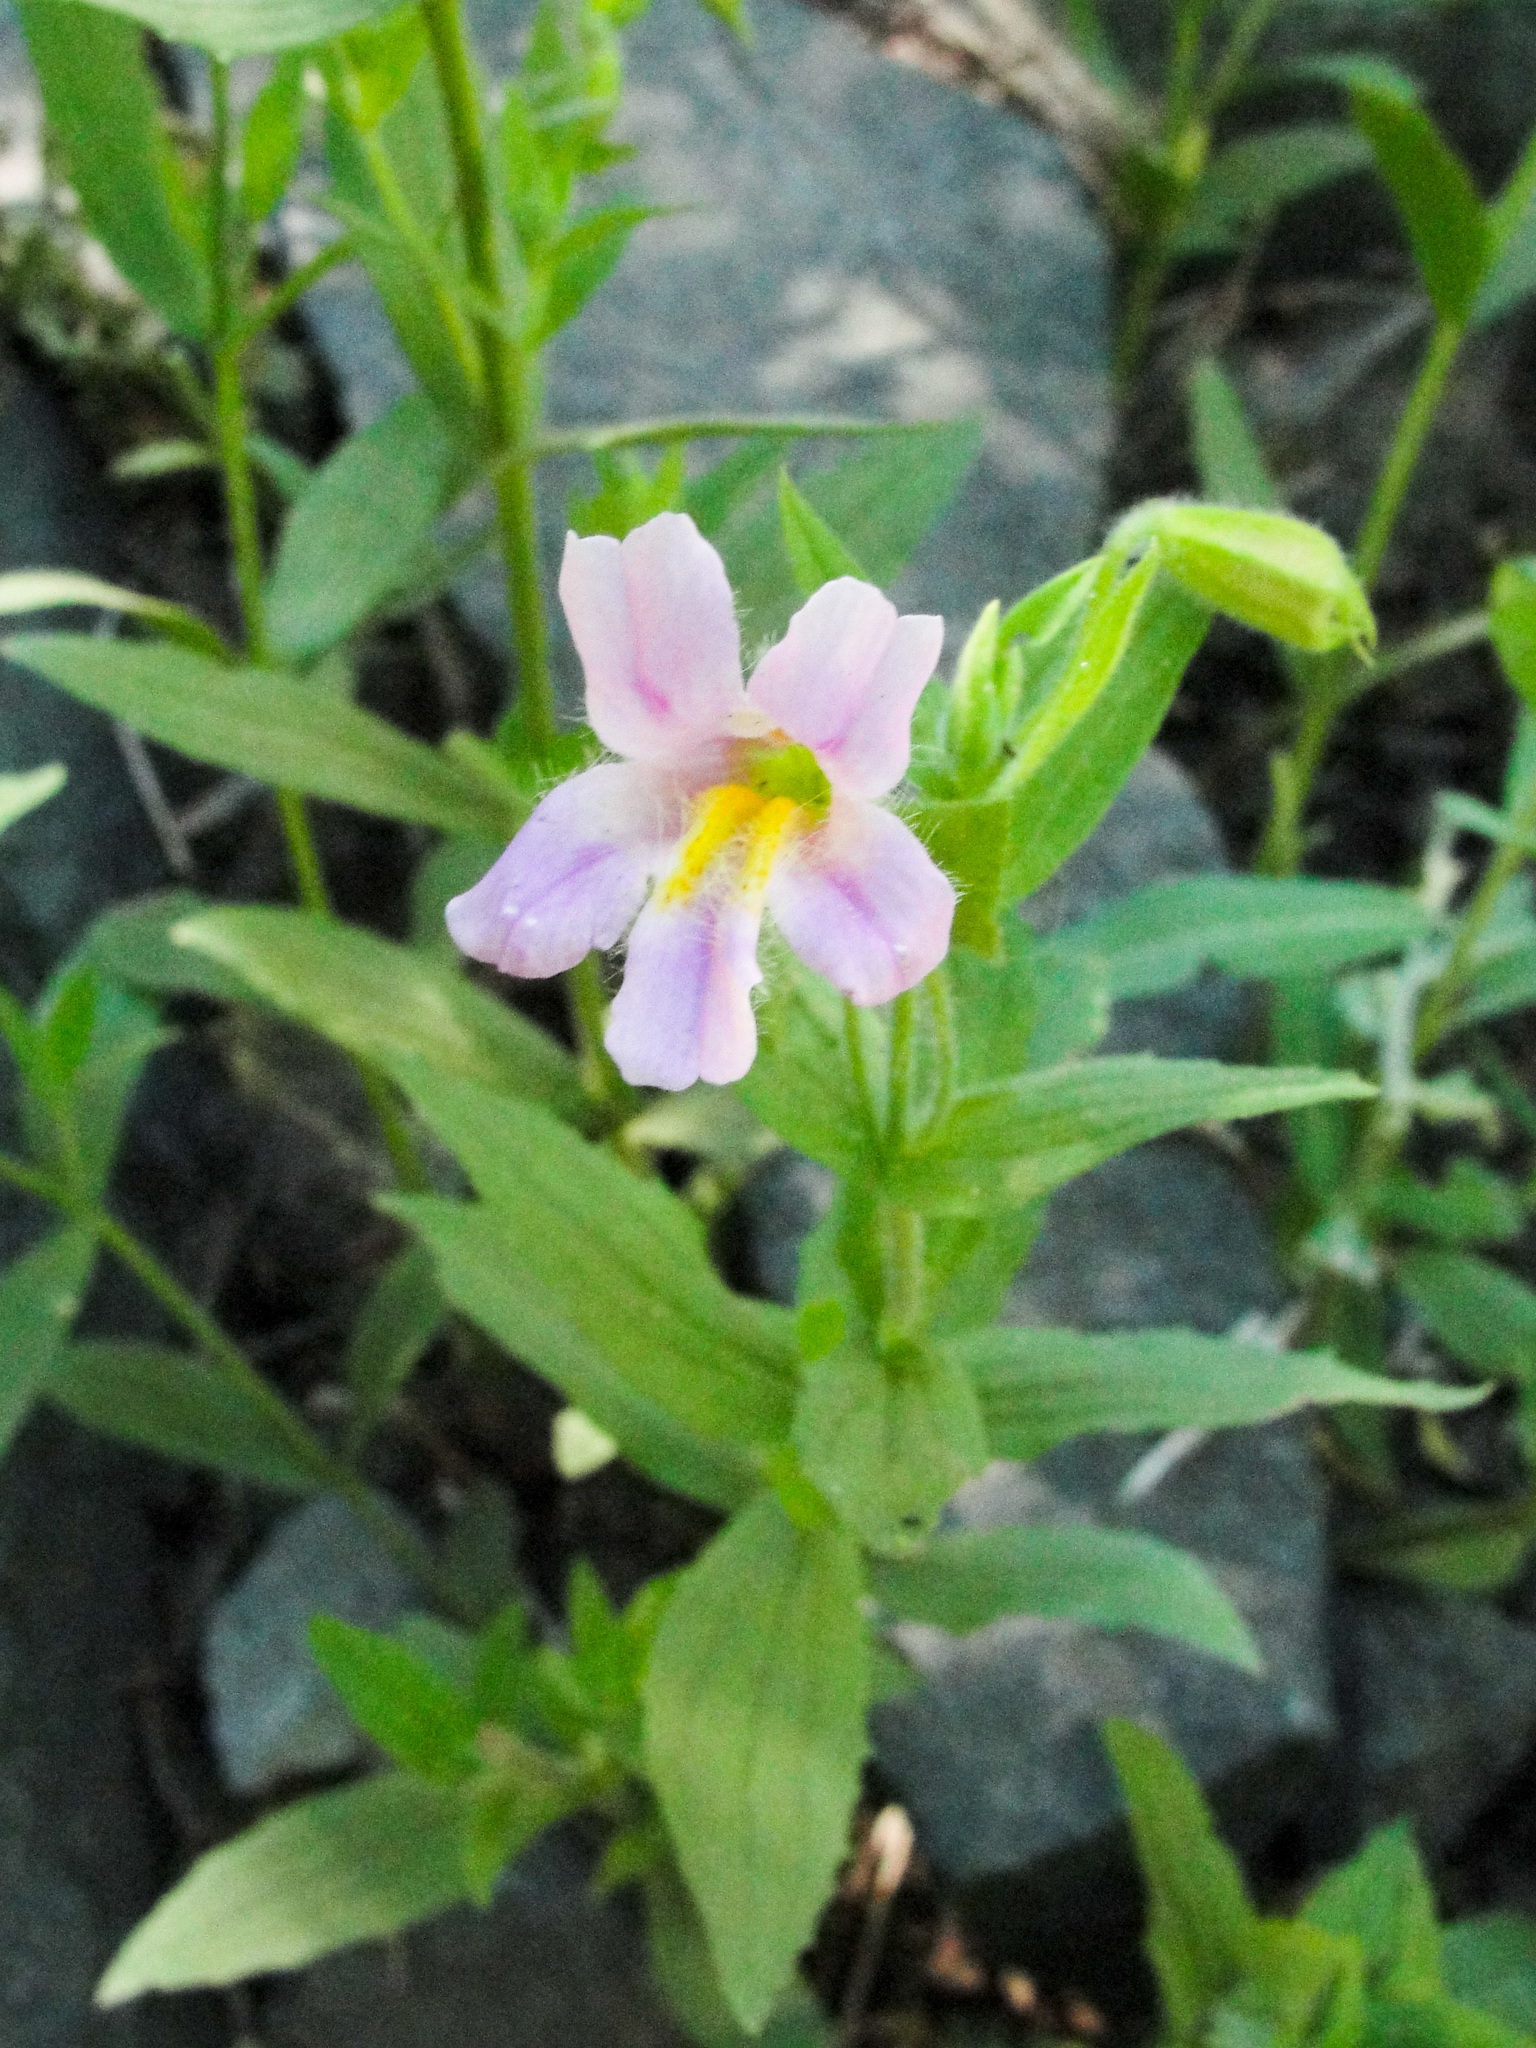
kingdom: Plantae
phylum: Tracheophyta
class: Magnoliopsida
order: Lamiales
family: Phrymaceae
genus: Erythranthe
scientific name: Erythranthe erubescens
